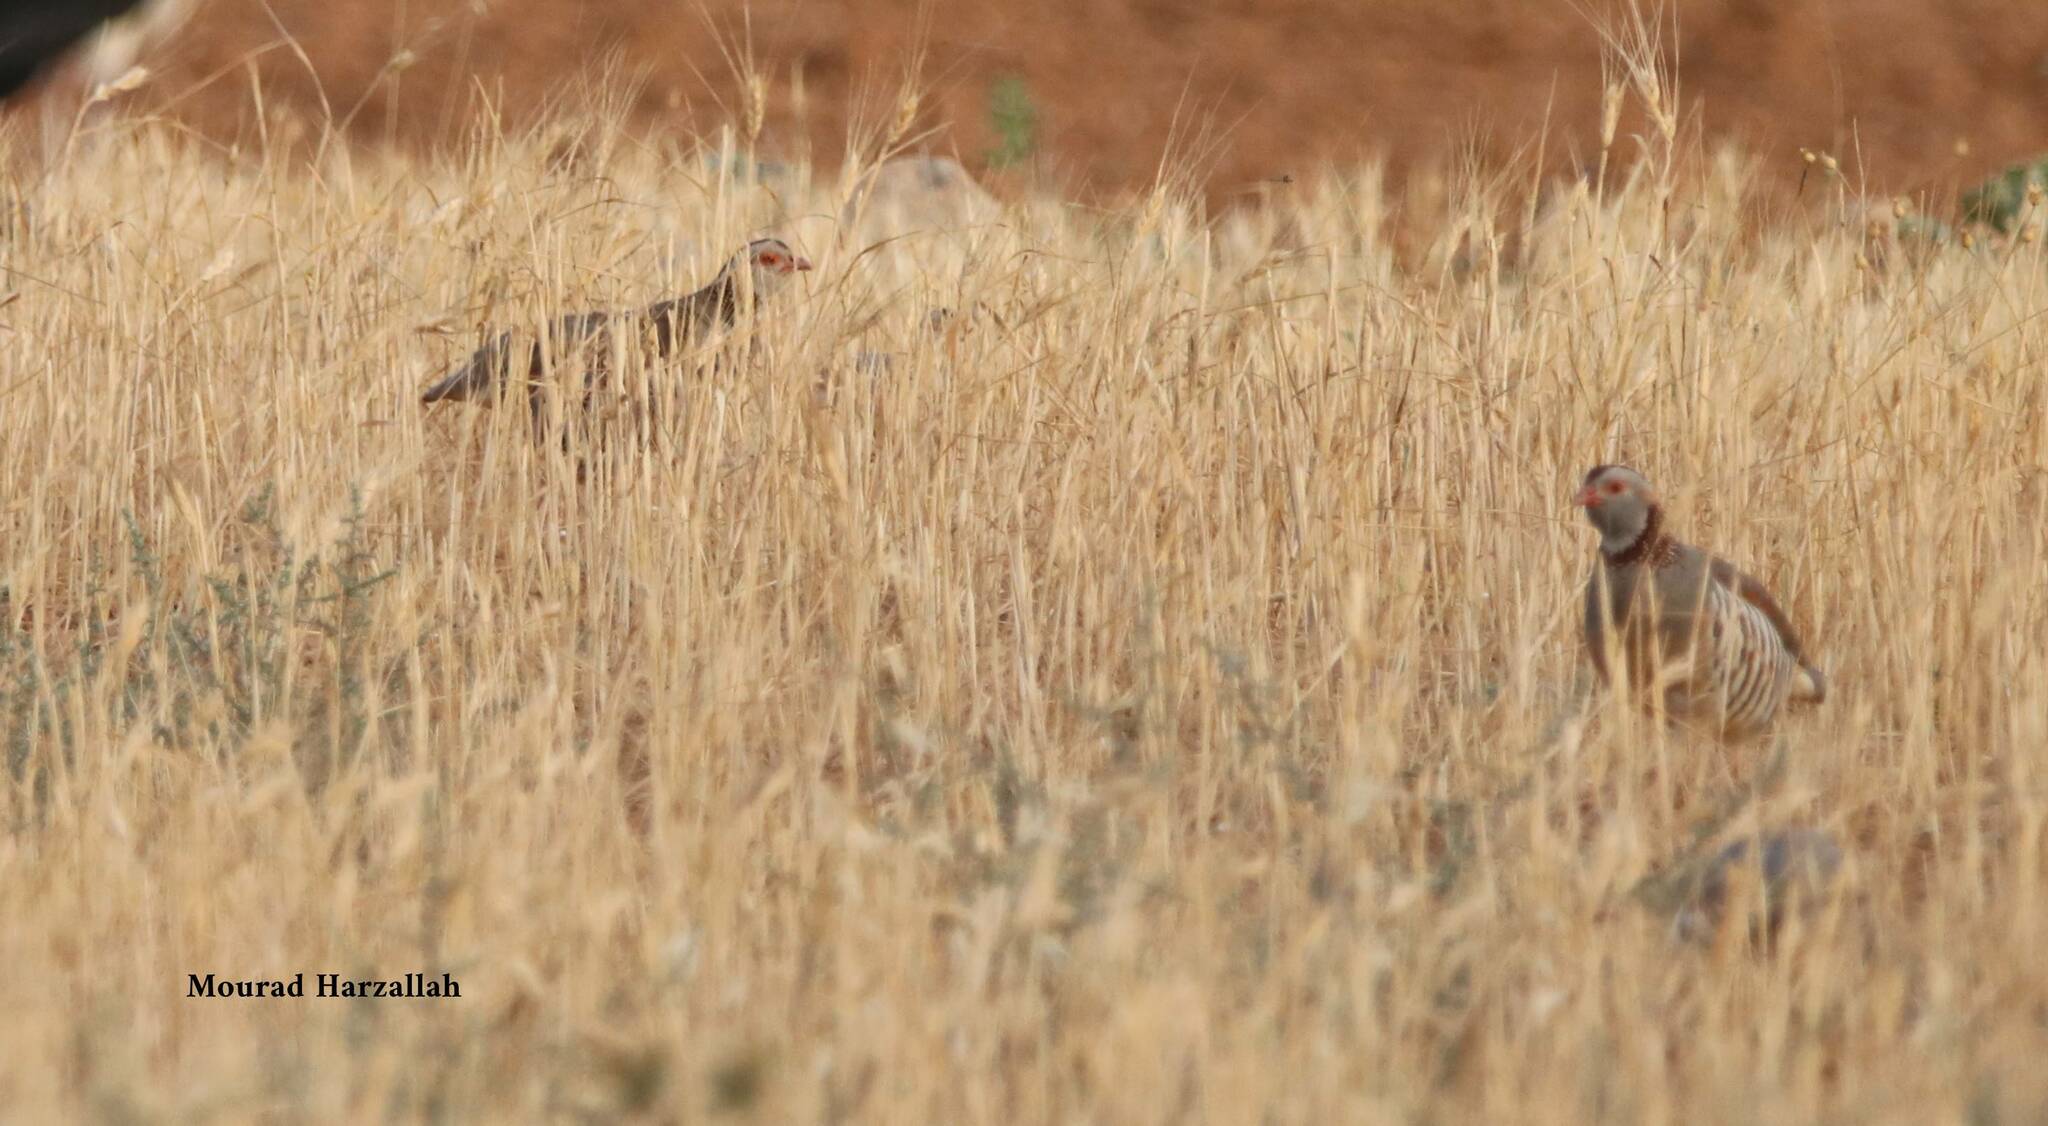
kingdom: Animalia
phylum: Chordata
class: Aves
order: Galliformes
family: Phasianidae
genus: Alectoris
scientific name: Alectoris barbara
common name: Barbary partridge
